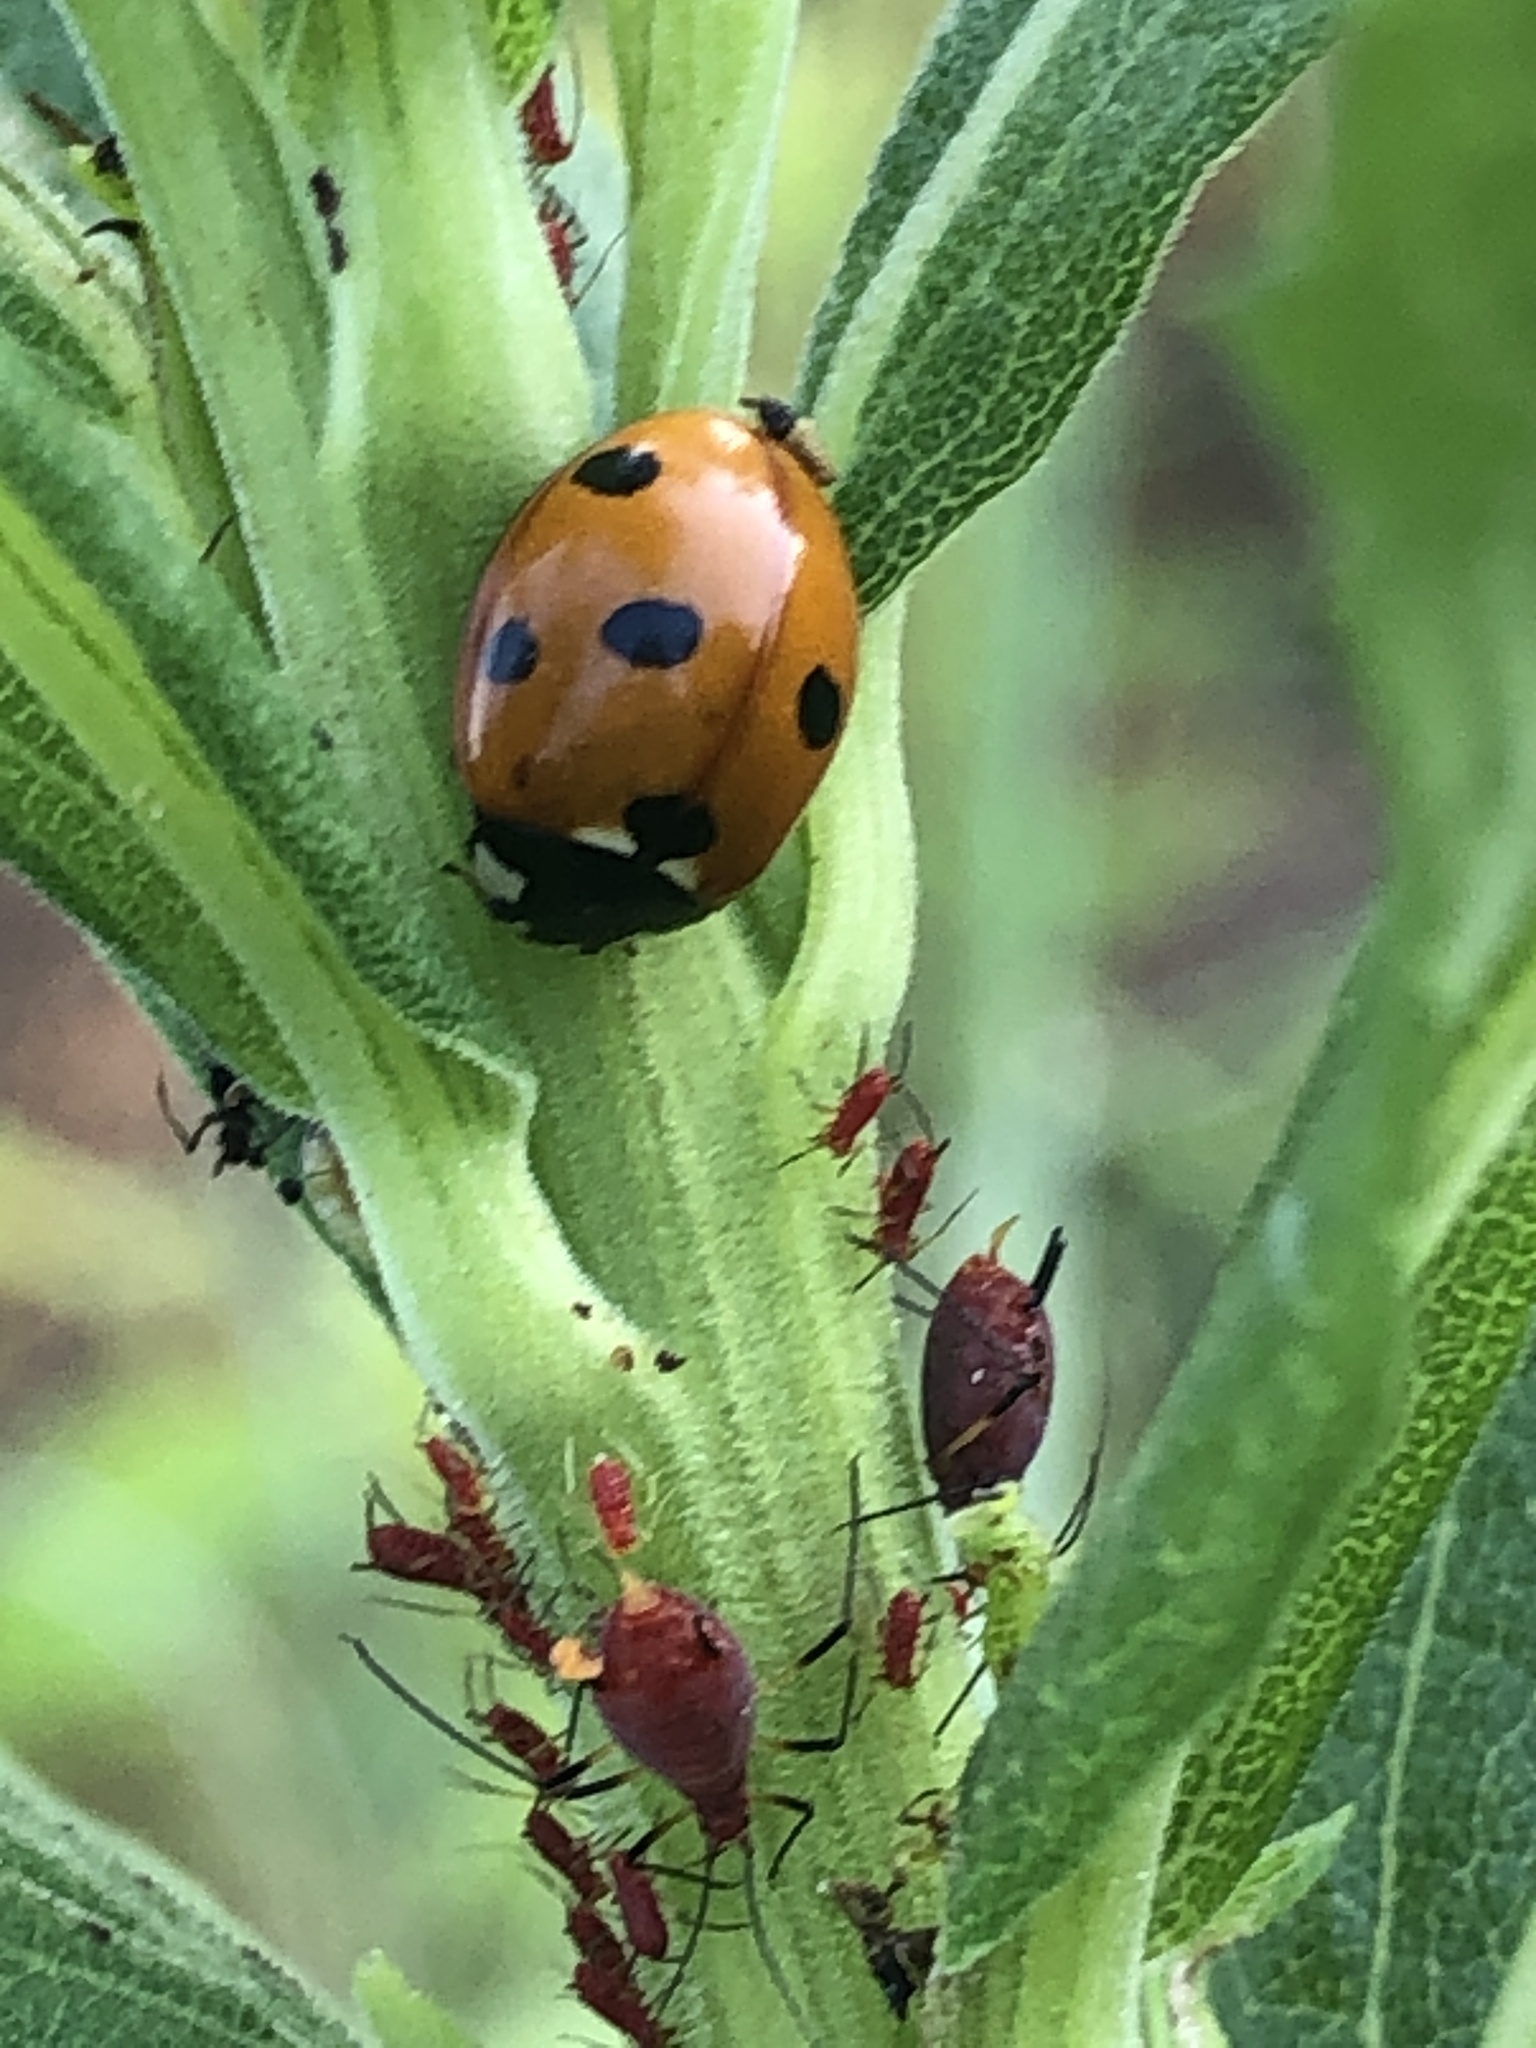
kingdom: Animalia
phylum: Arthropoda
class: Insecta
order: Coleoptera
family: Coccinellidae
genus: Coccinella
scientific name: Coccinella septempunctata
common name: Sevenspotted lady beetle
